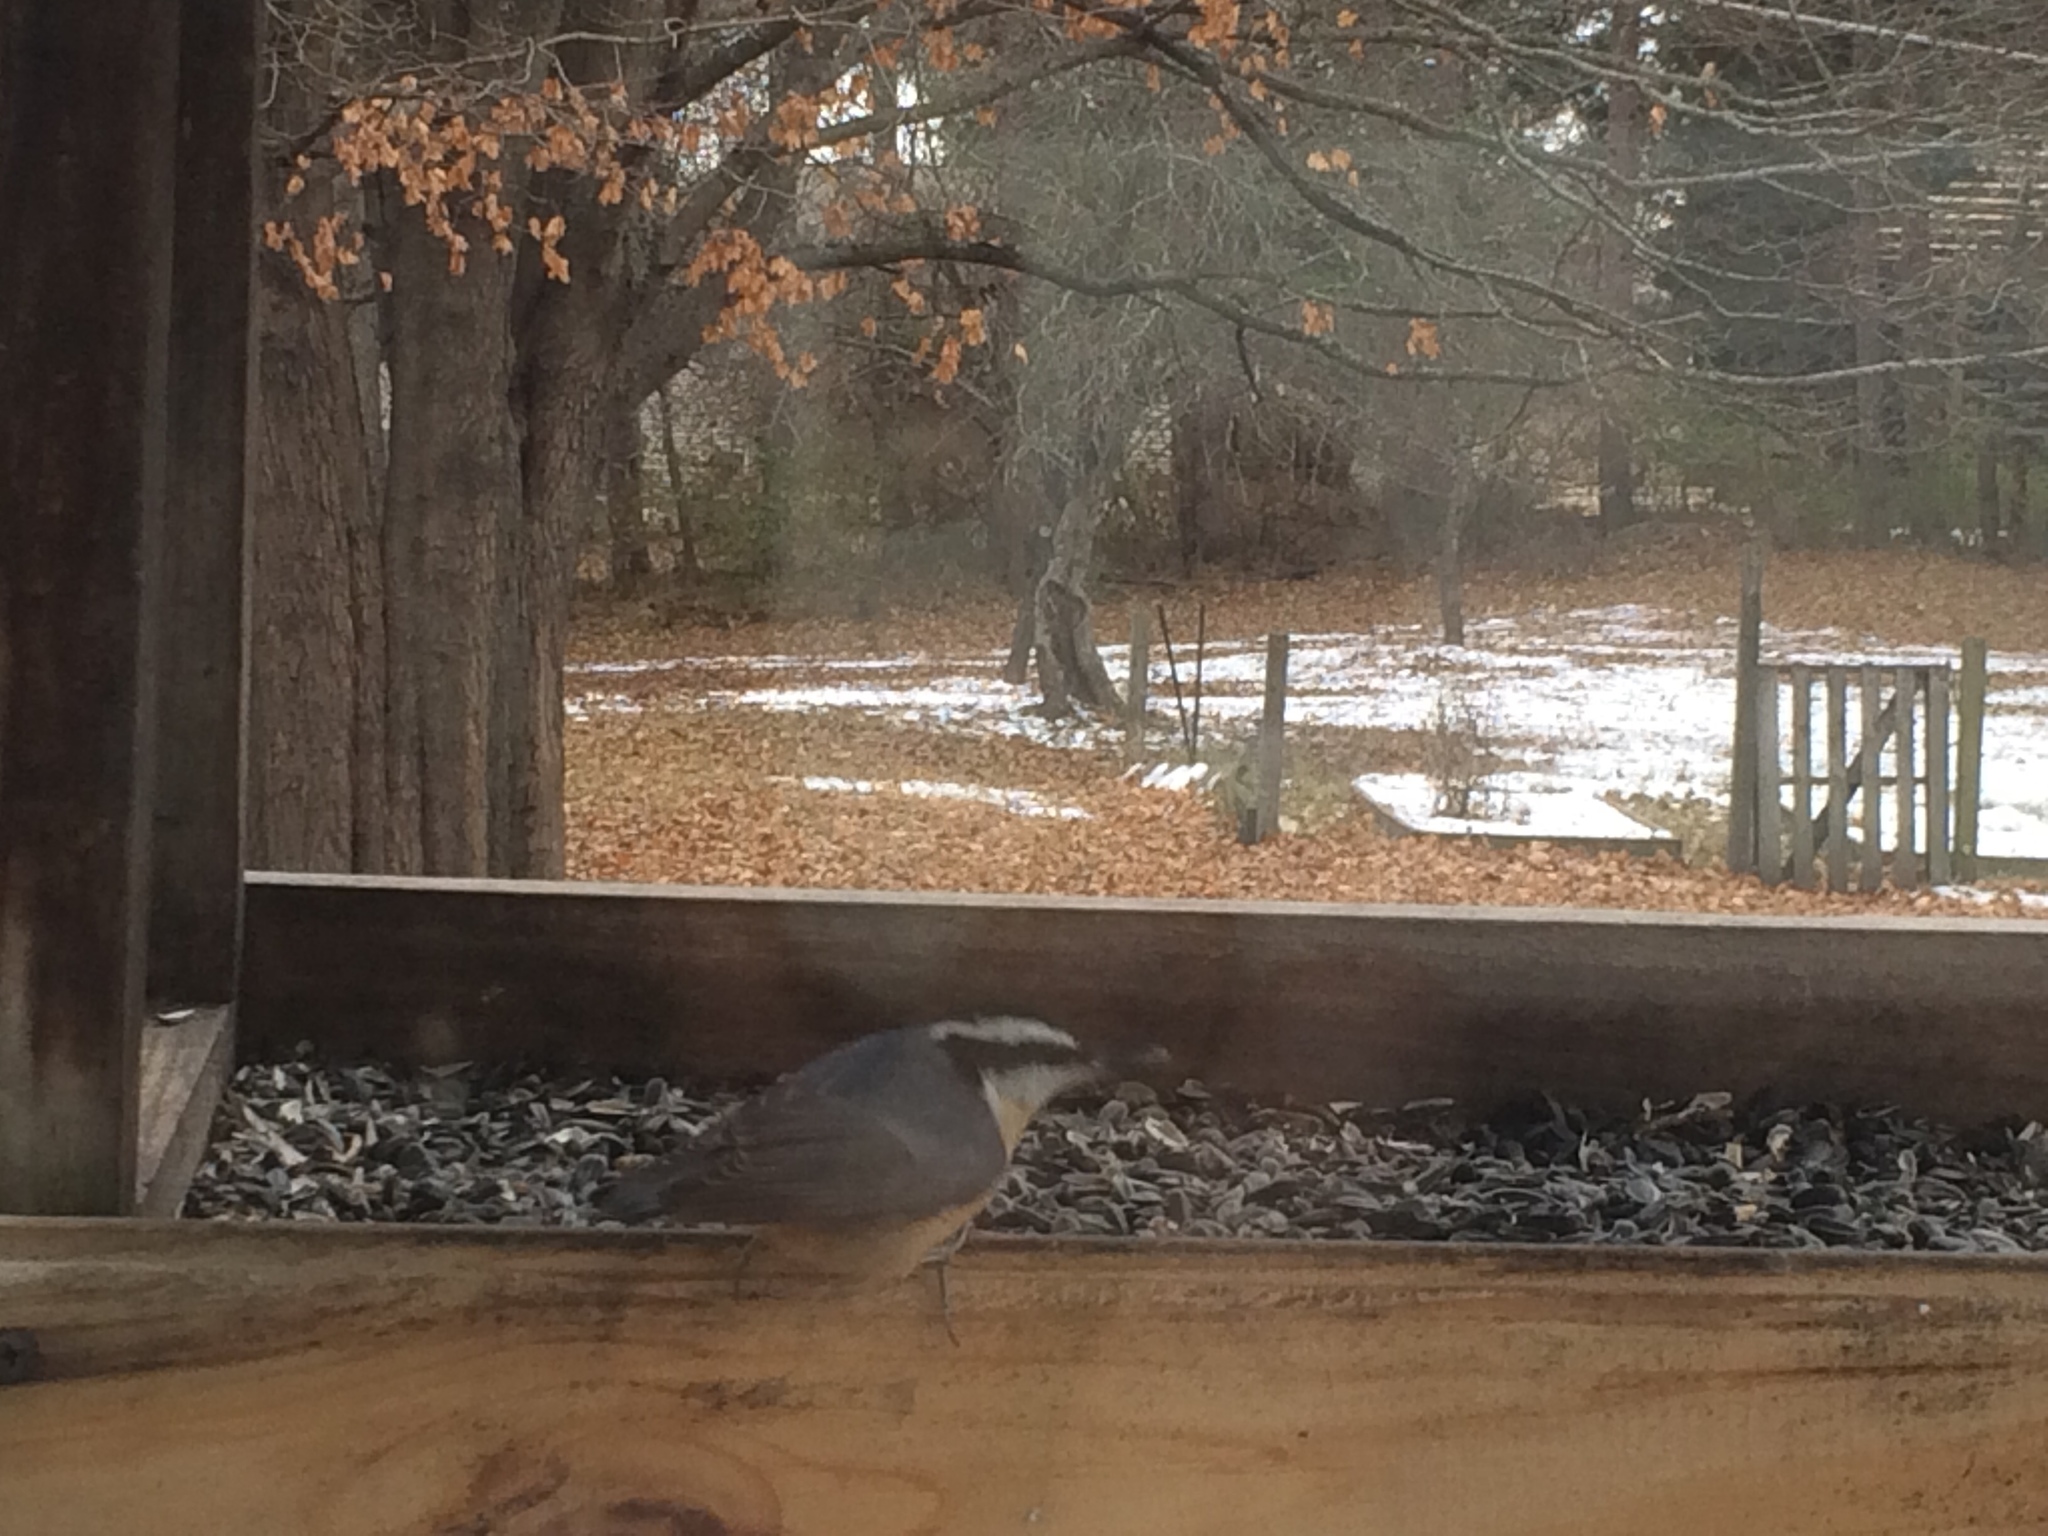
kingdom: Animalia
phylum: Chordata
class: Aves
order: Passeriformes
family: Sittidae
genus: Sitta
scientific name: Sitta canadensis
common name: Red-breasted nuthatch
